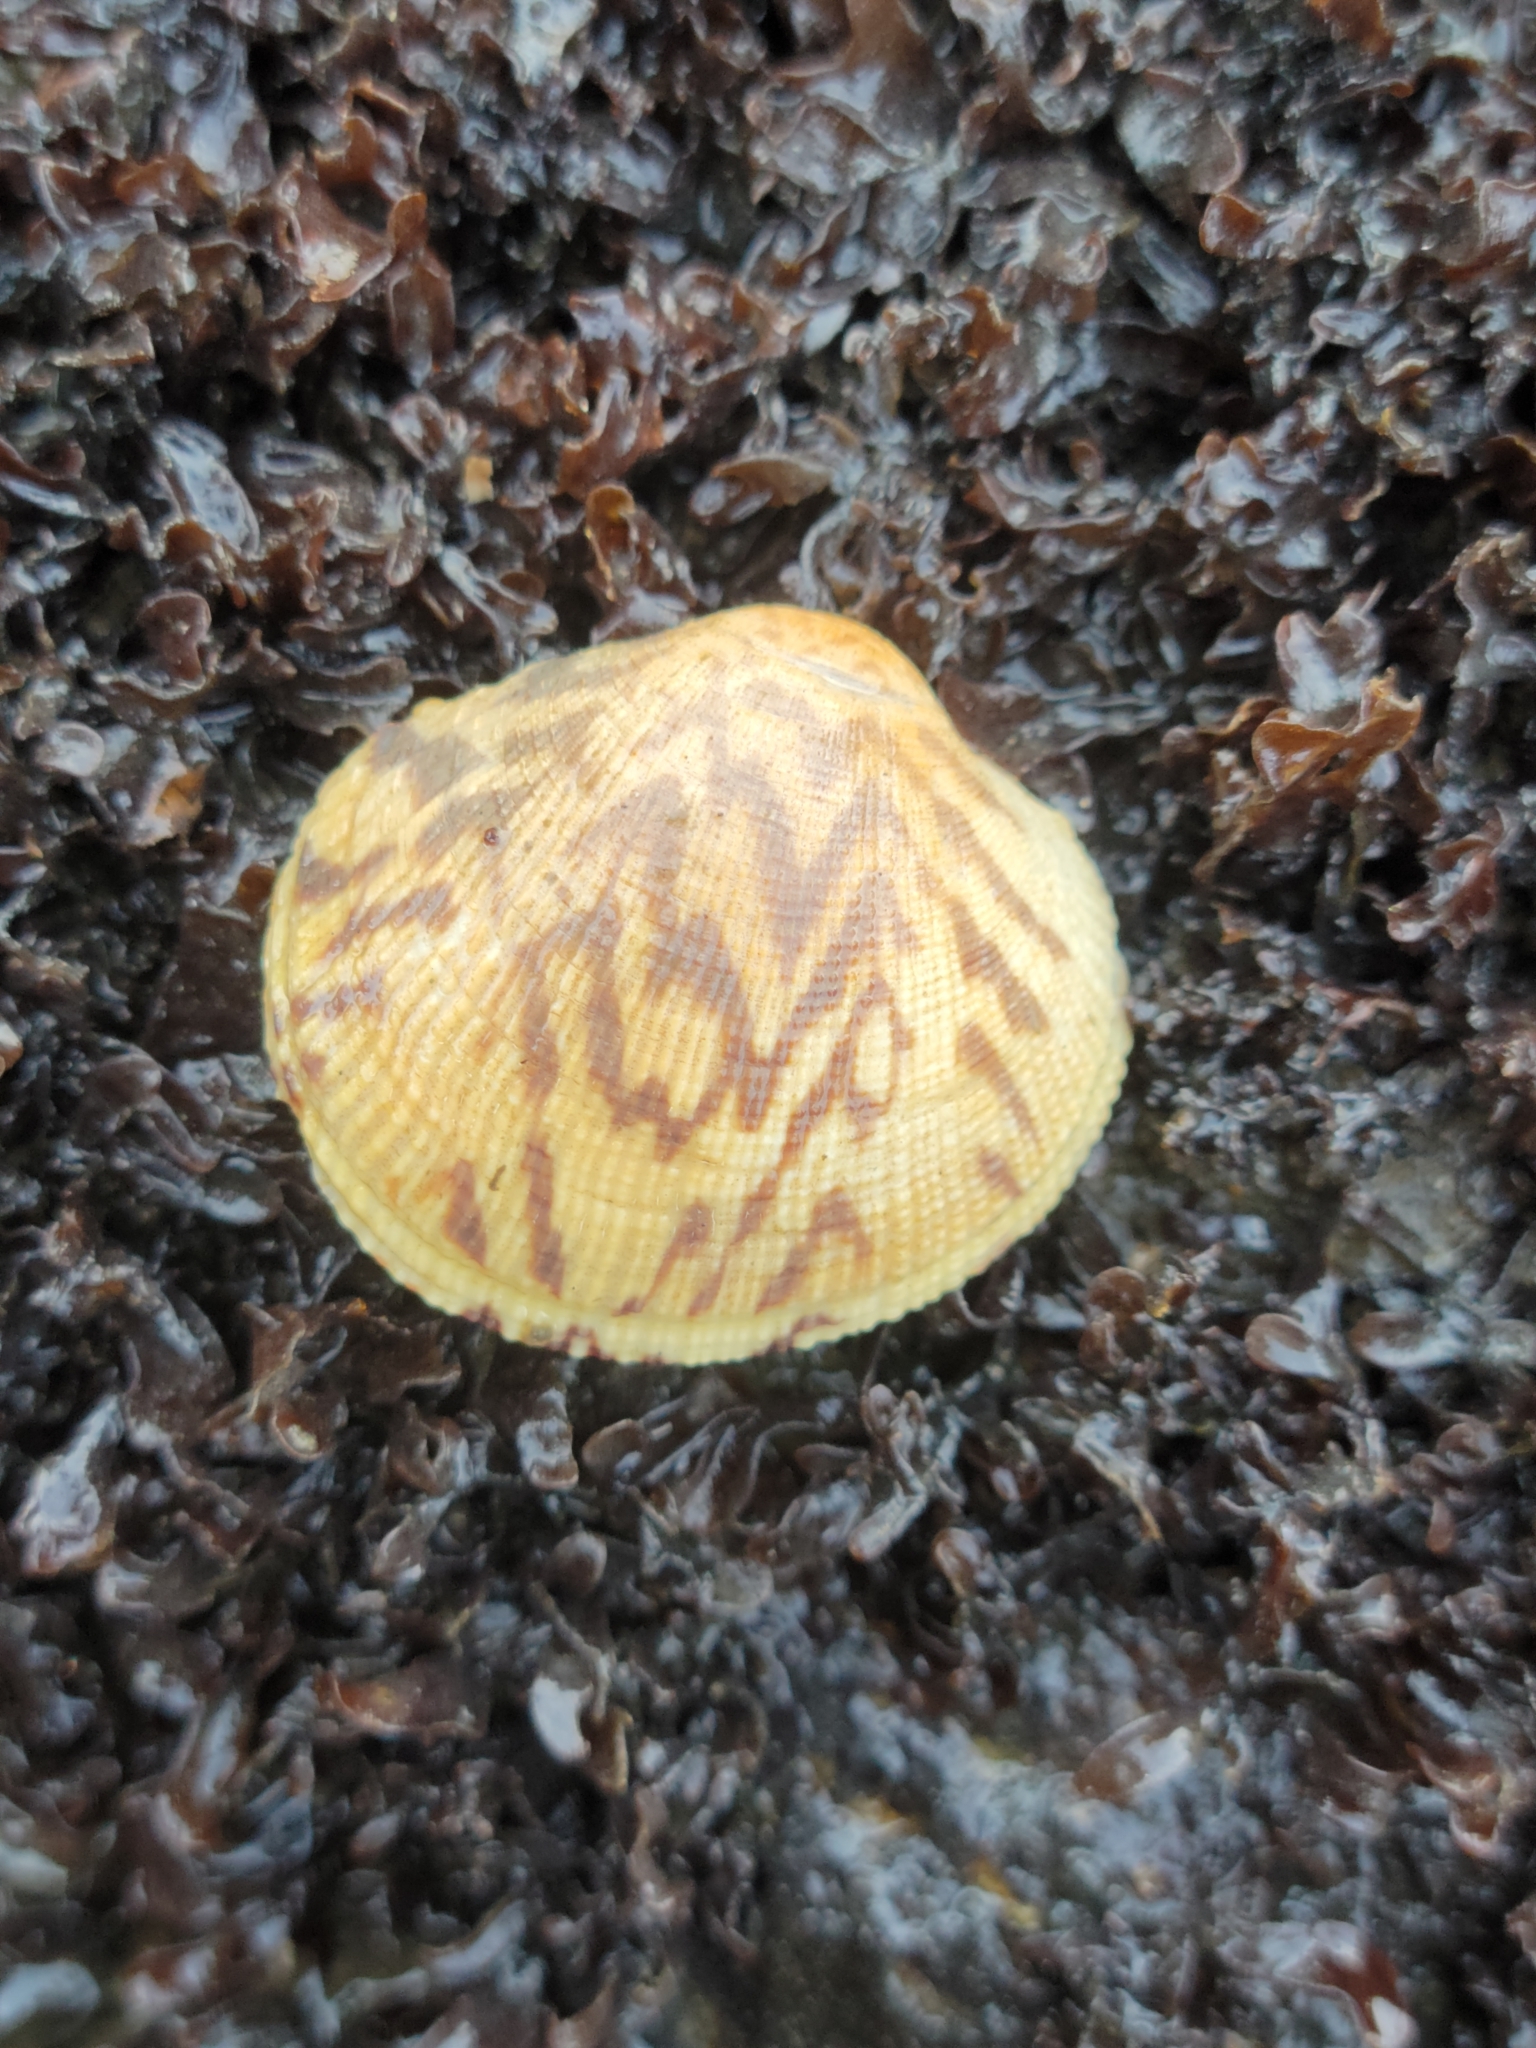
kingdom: Animalia
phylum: Mollusca
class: Bivalvia
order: Venerida
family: Veneridae
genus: Leukoma
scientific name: Leukoma staminea
